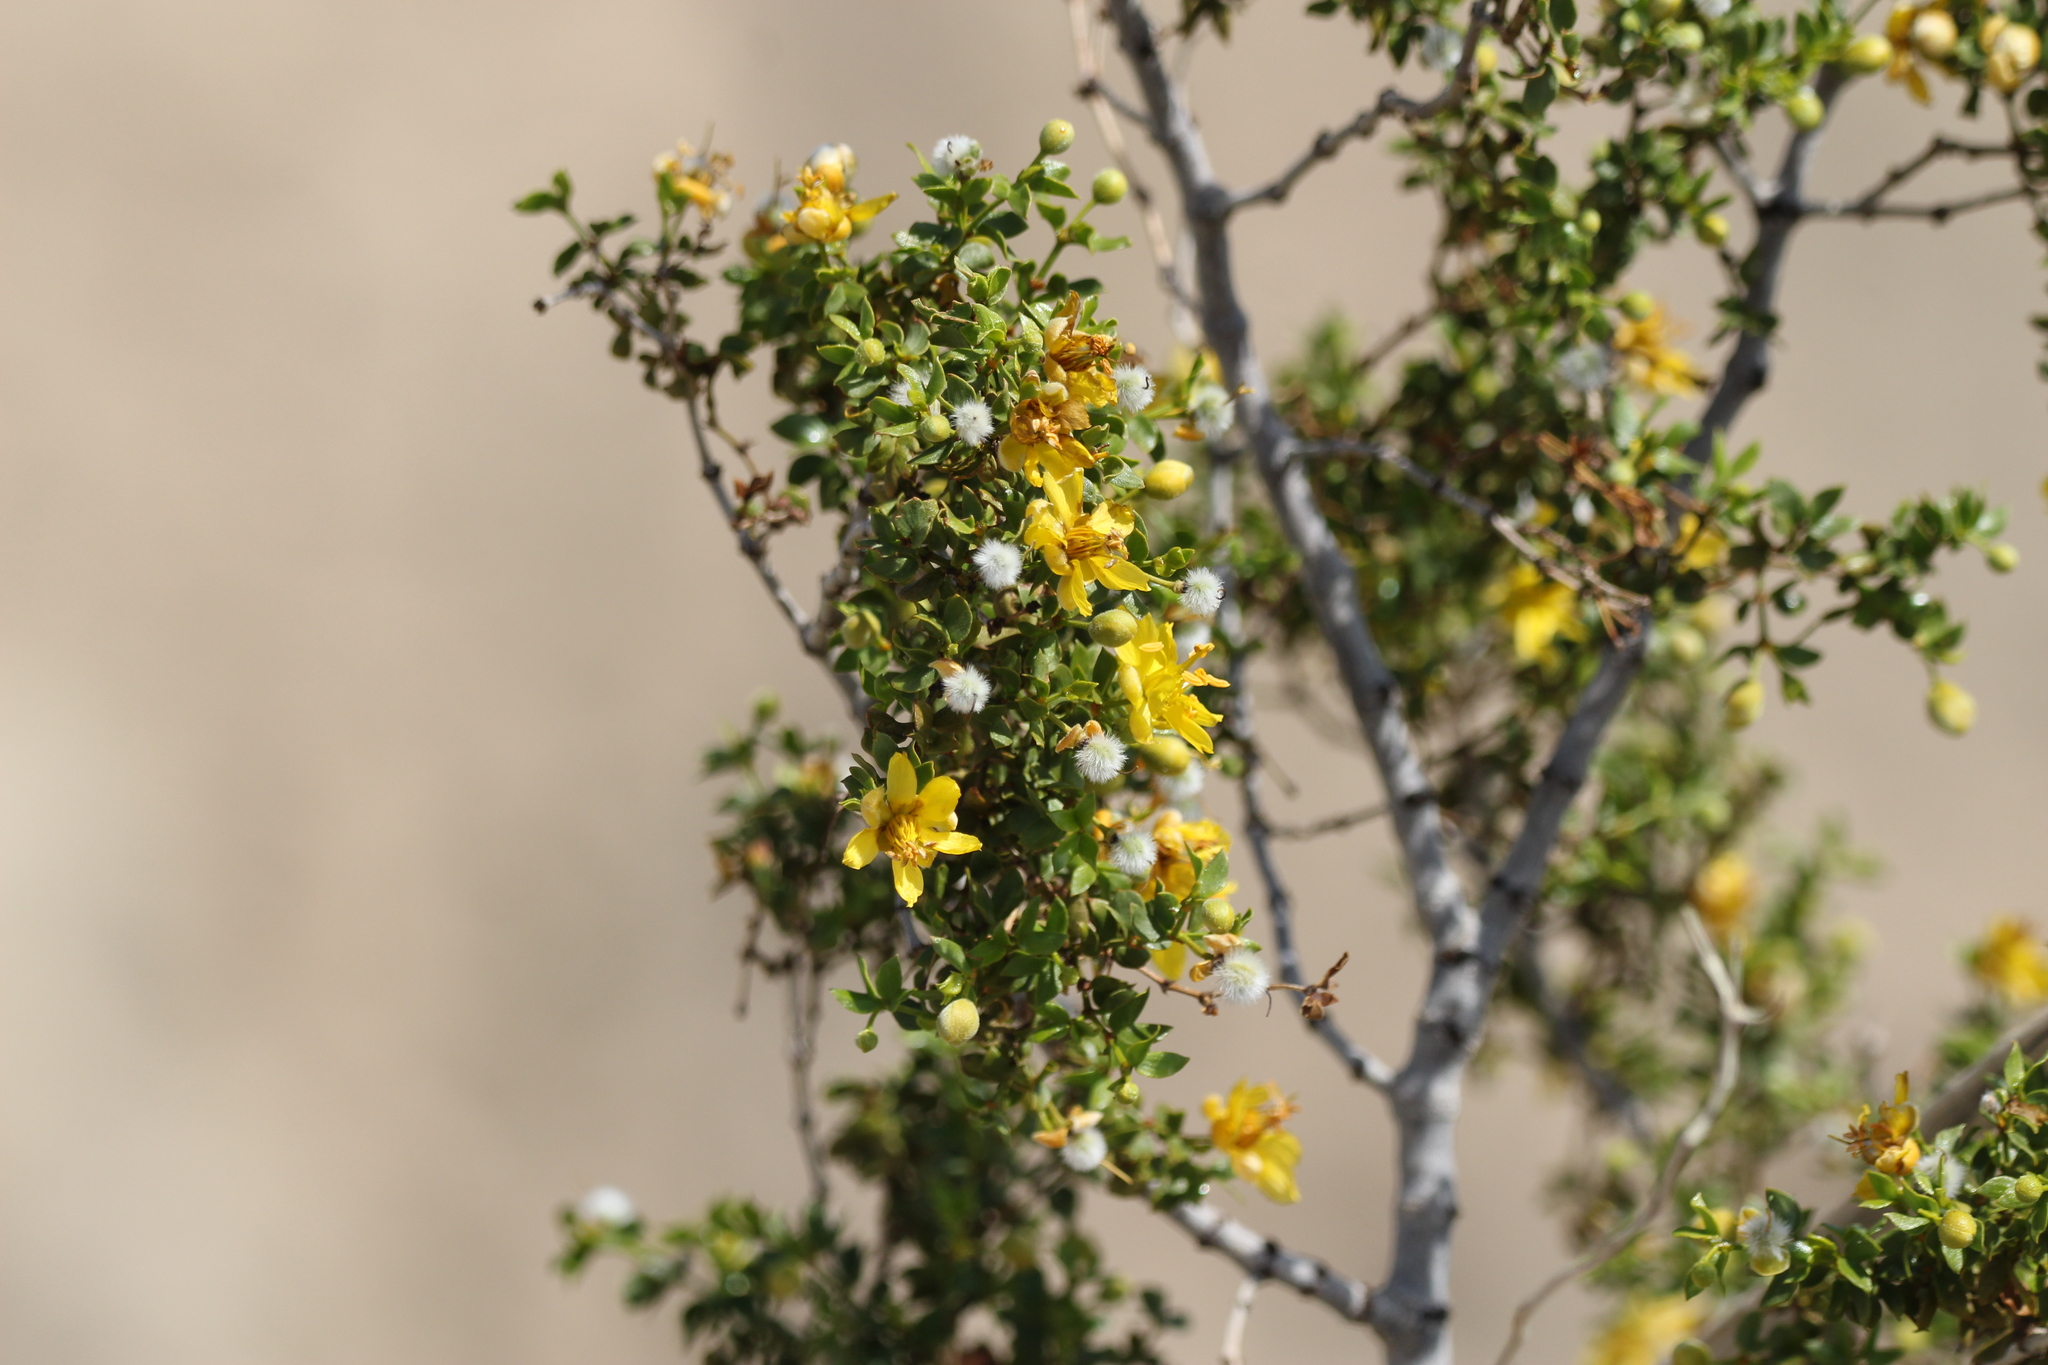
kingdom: Plantae
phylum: Tracheophyta
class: Magnoliopsida
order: Zygophyllales
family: Zygophyllaceae
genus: Larrea
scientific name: Larrea tridentata
